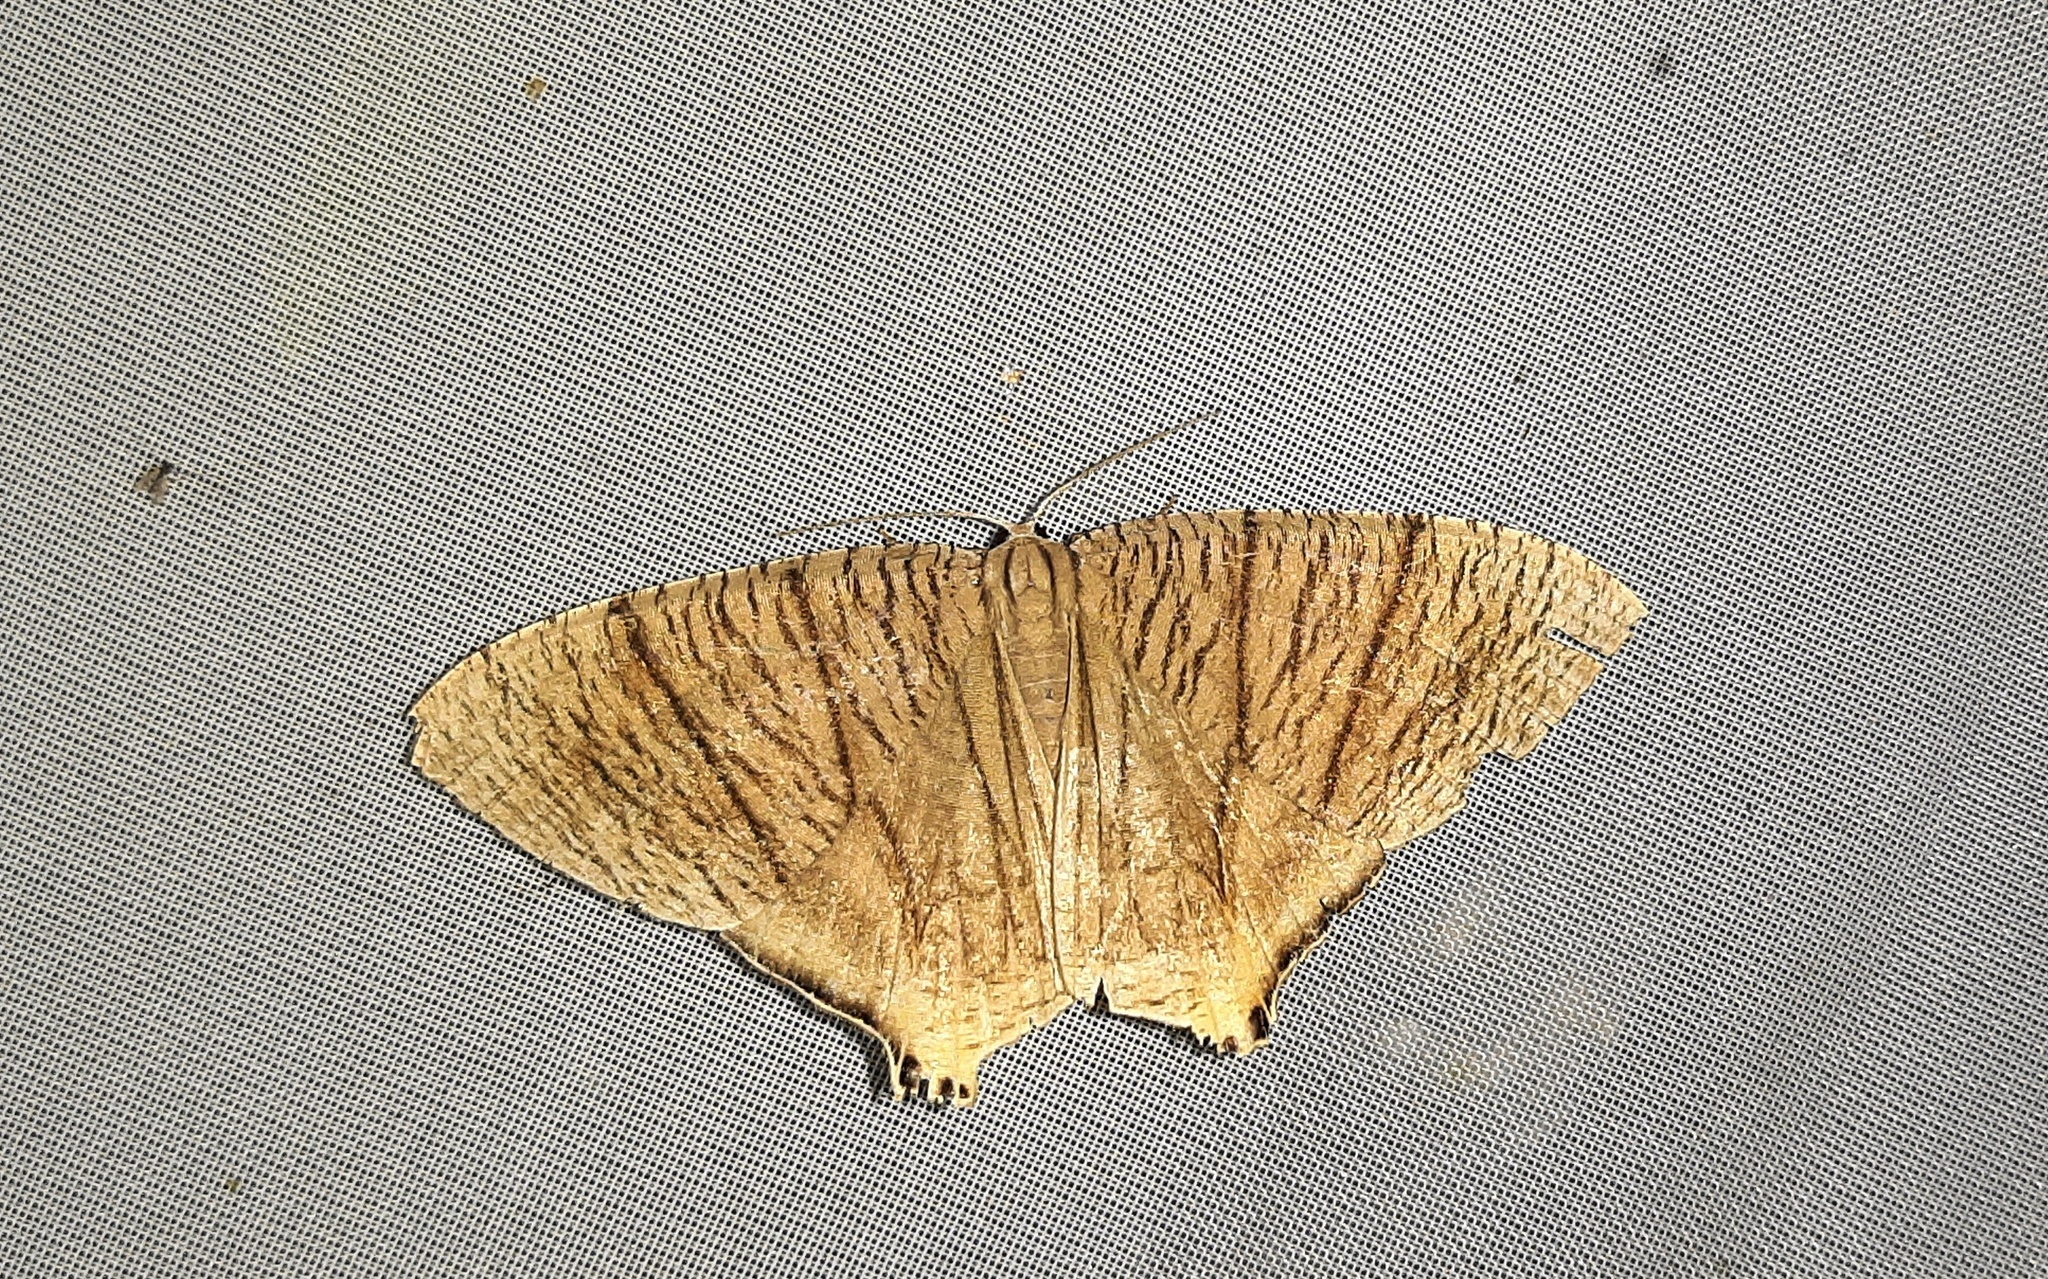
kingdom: Animalia
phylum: Arthropoda
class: Insecta
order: Lepidoptera
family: Uraniidae
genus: Meleaba
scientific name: Meleaba theclaria
